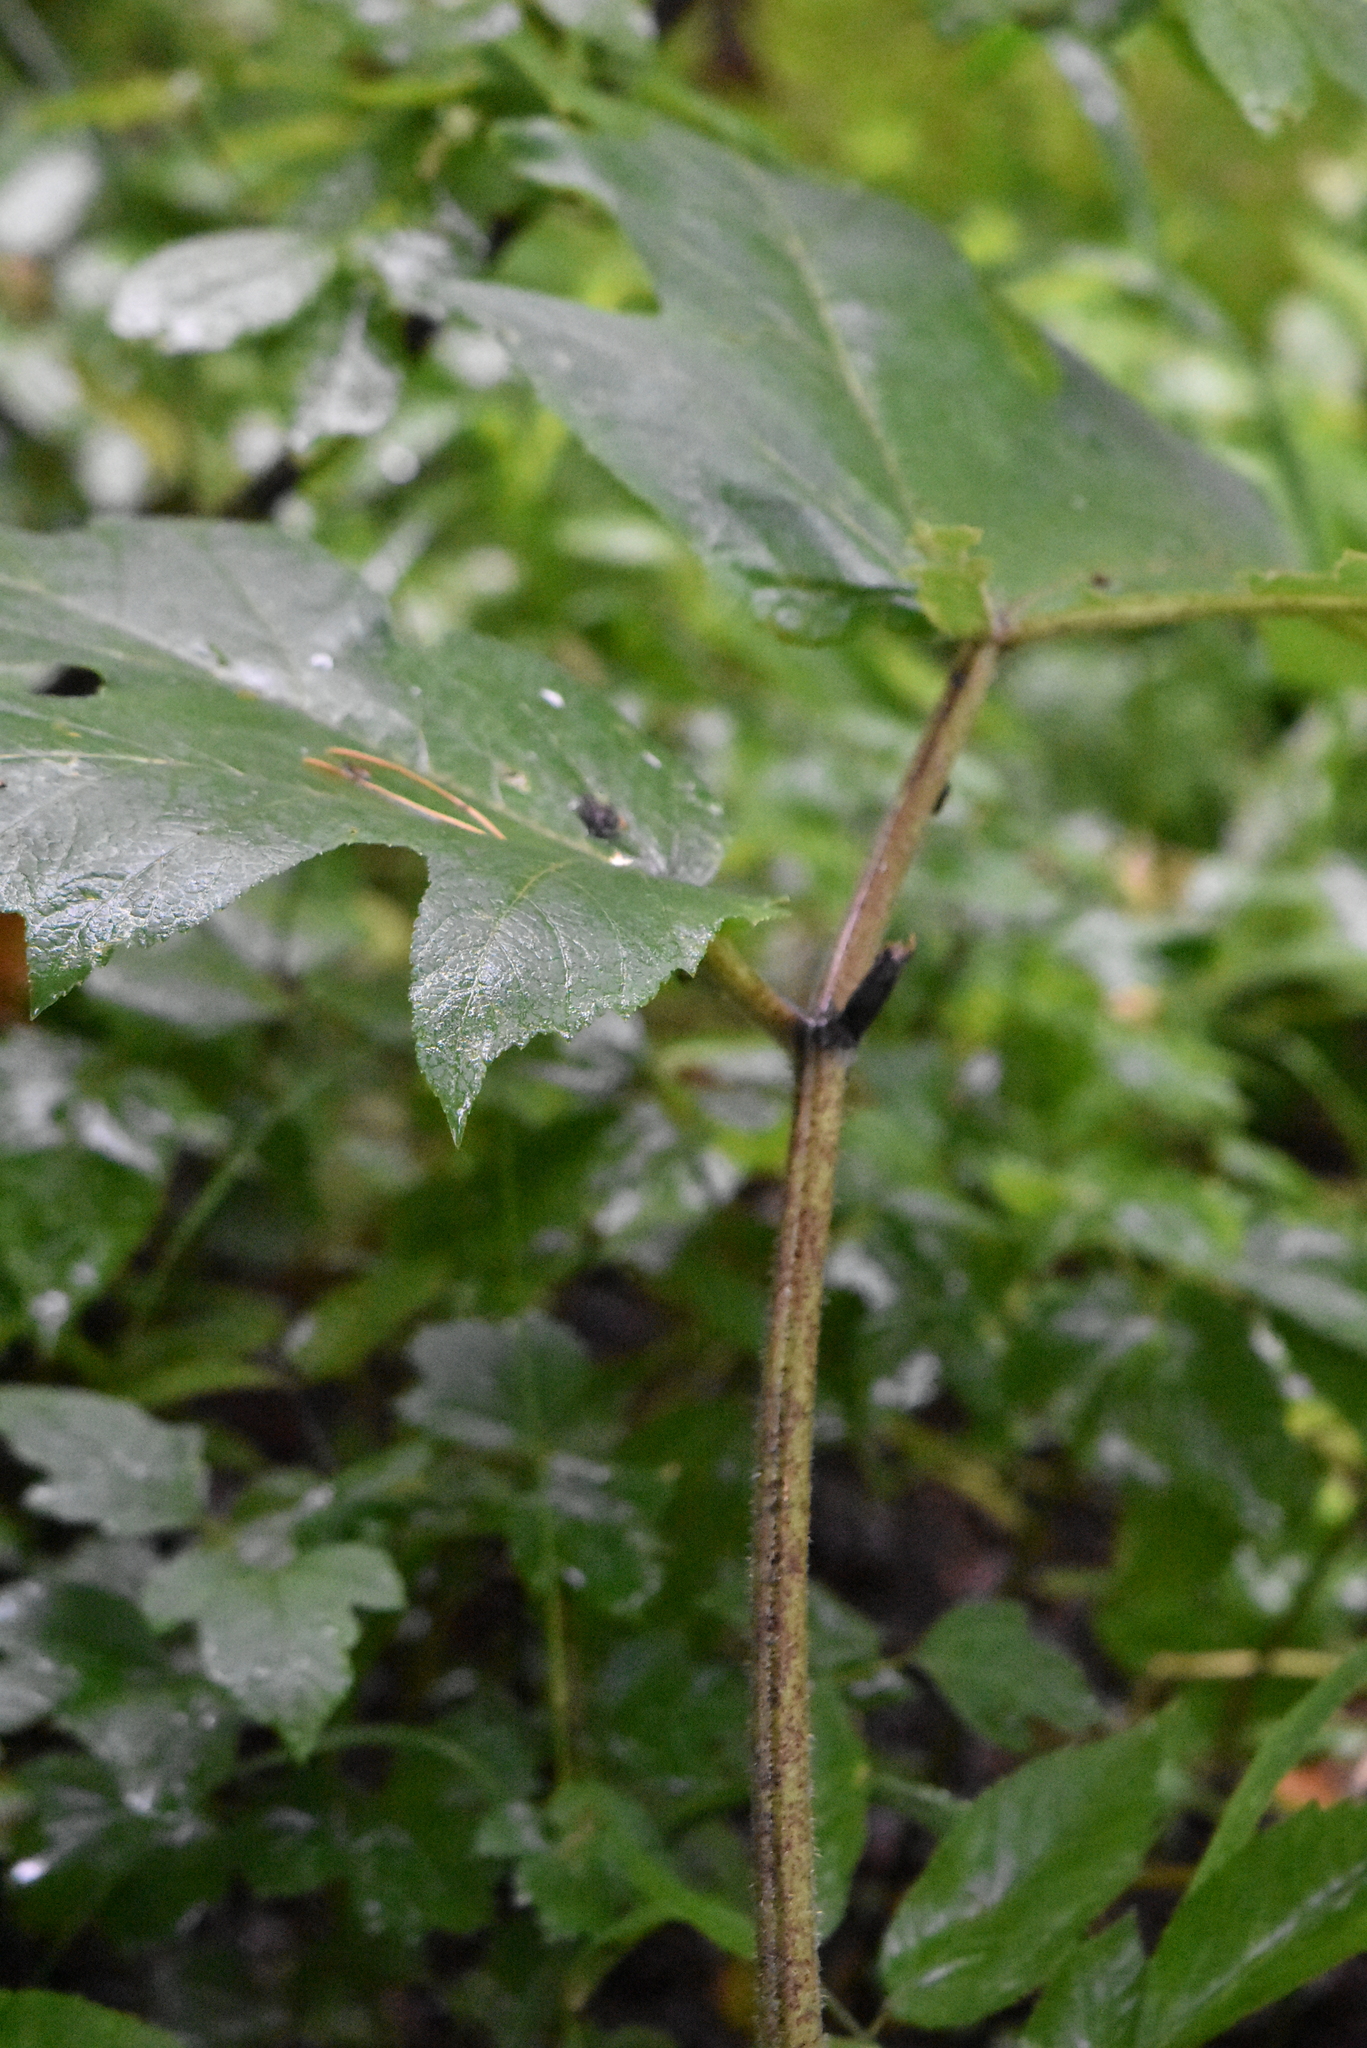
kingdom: Plantae
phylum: Tracheophyta
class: Magnoliopsida
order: Apiales
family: Apiaceae
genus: Heracleum
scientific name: Heracleum dissectum
